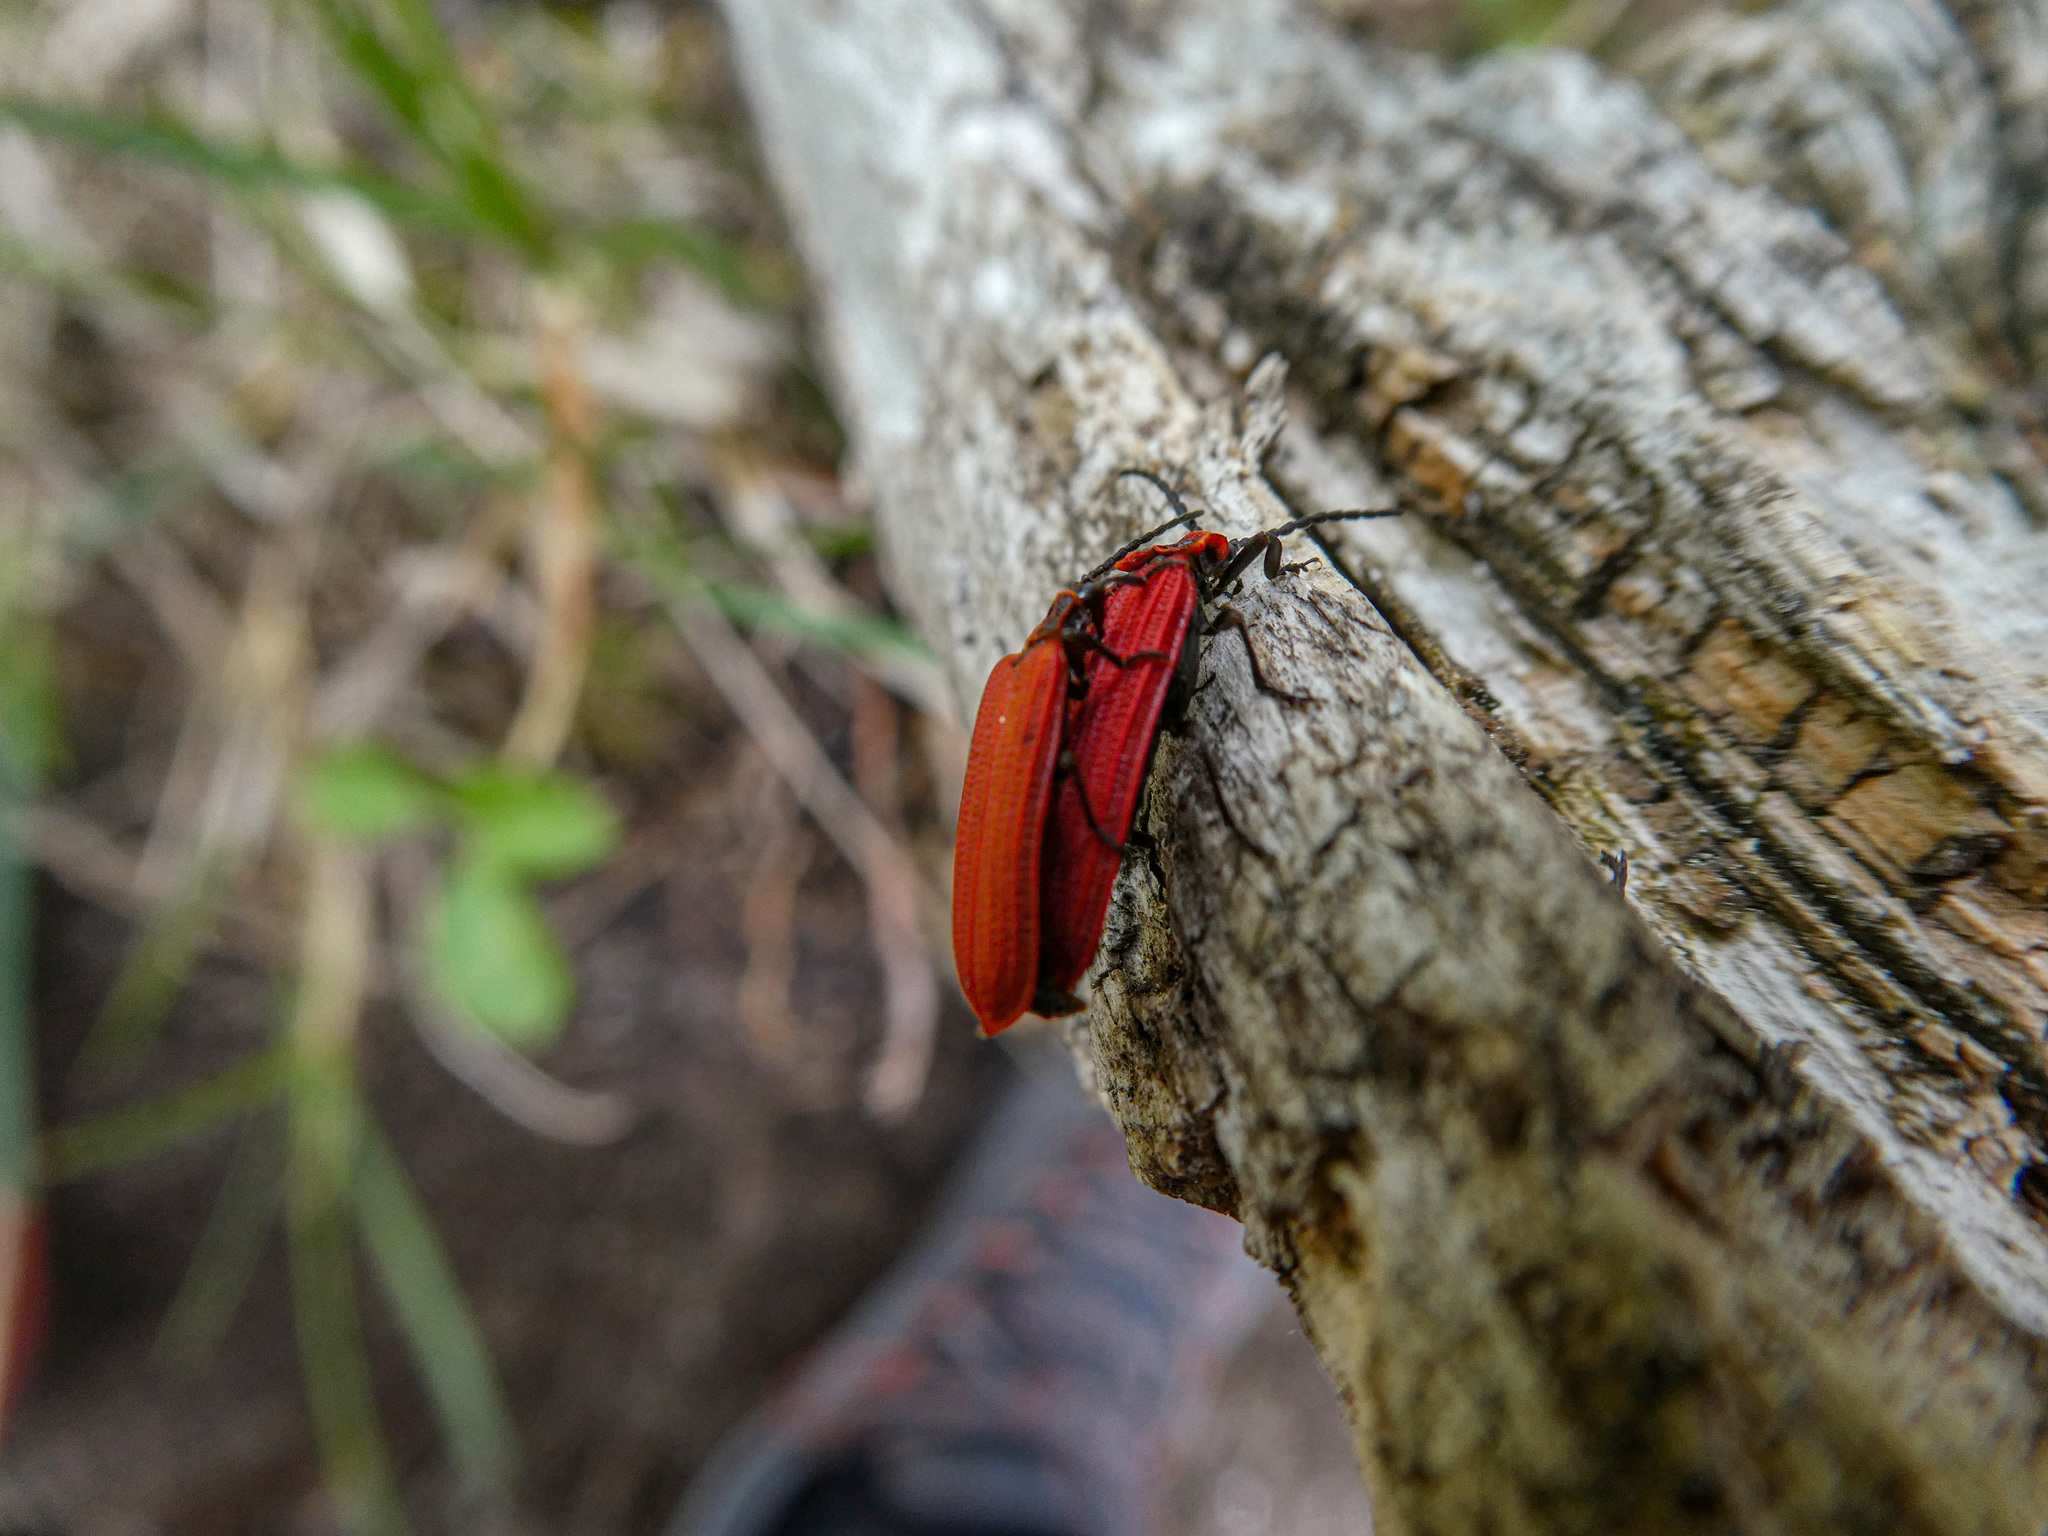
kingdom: Animalia
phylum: Arthropoda
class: Insecta
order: Coleoptera
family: Lycidae
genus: Dictyoptera
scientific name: Dictyoptera aurora
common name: Golden net-winged beetle
